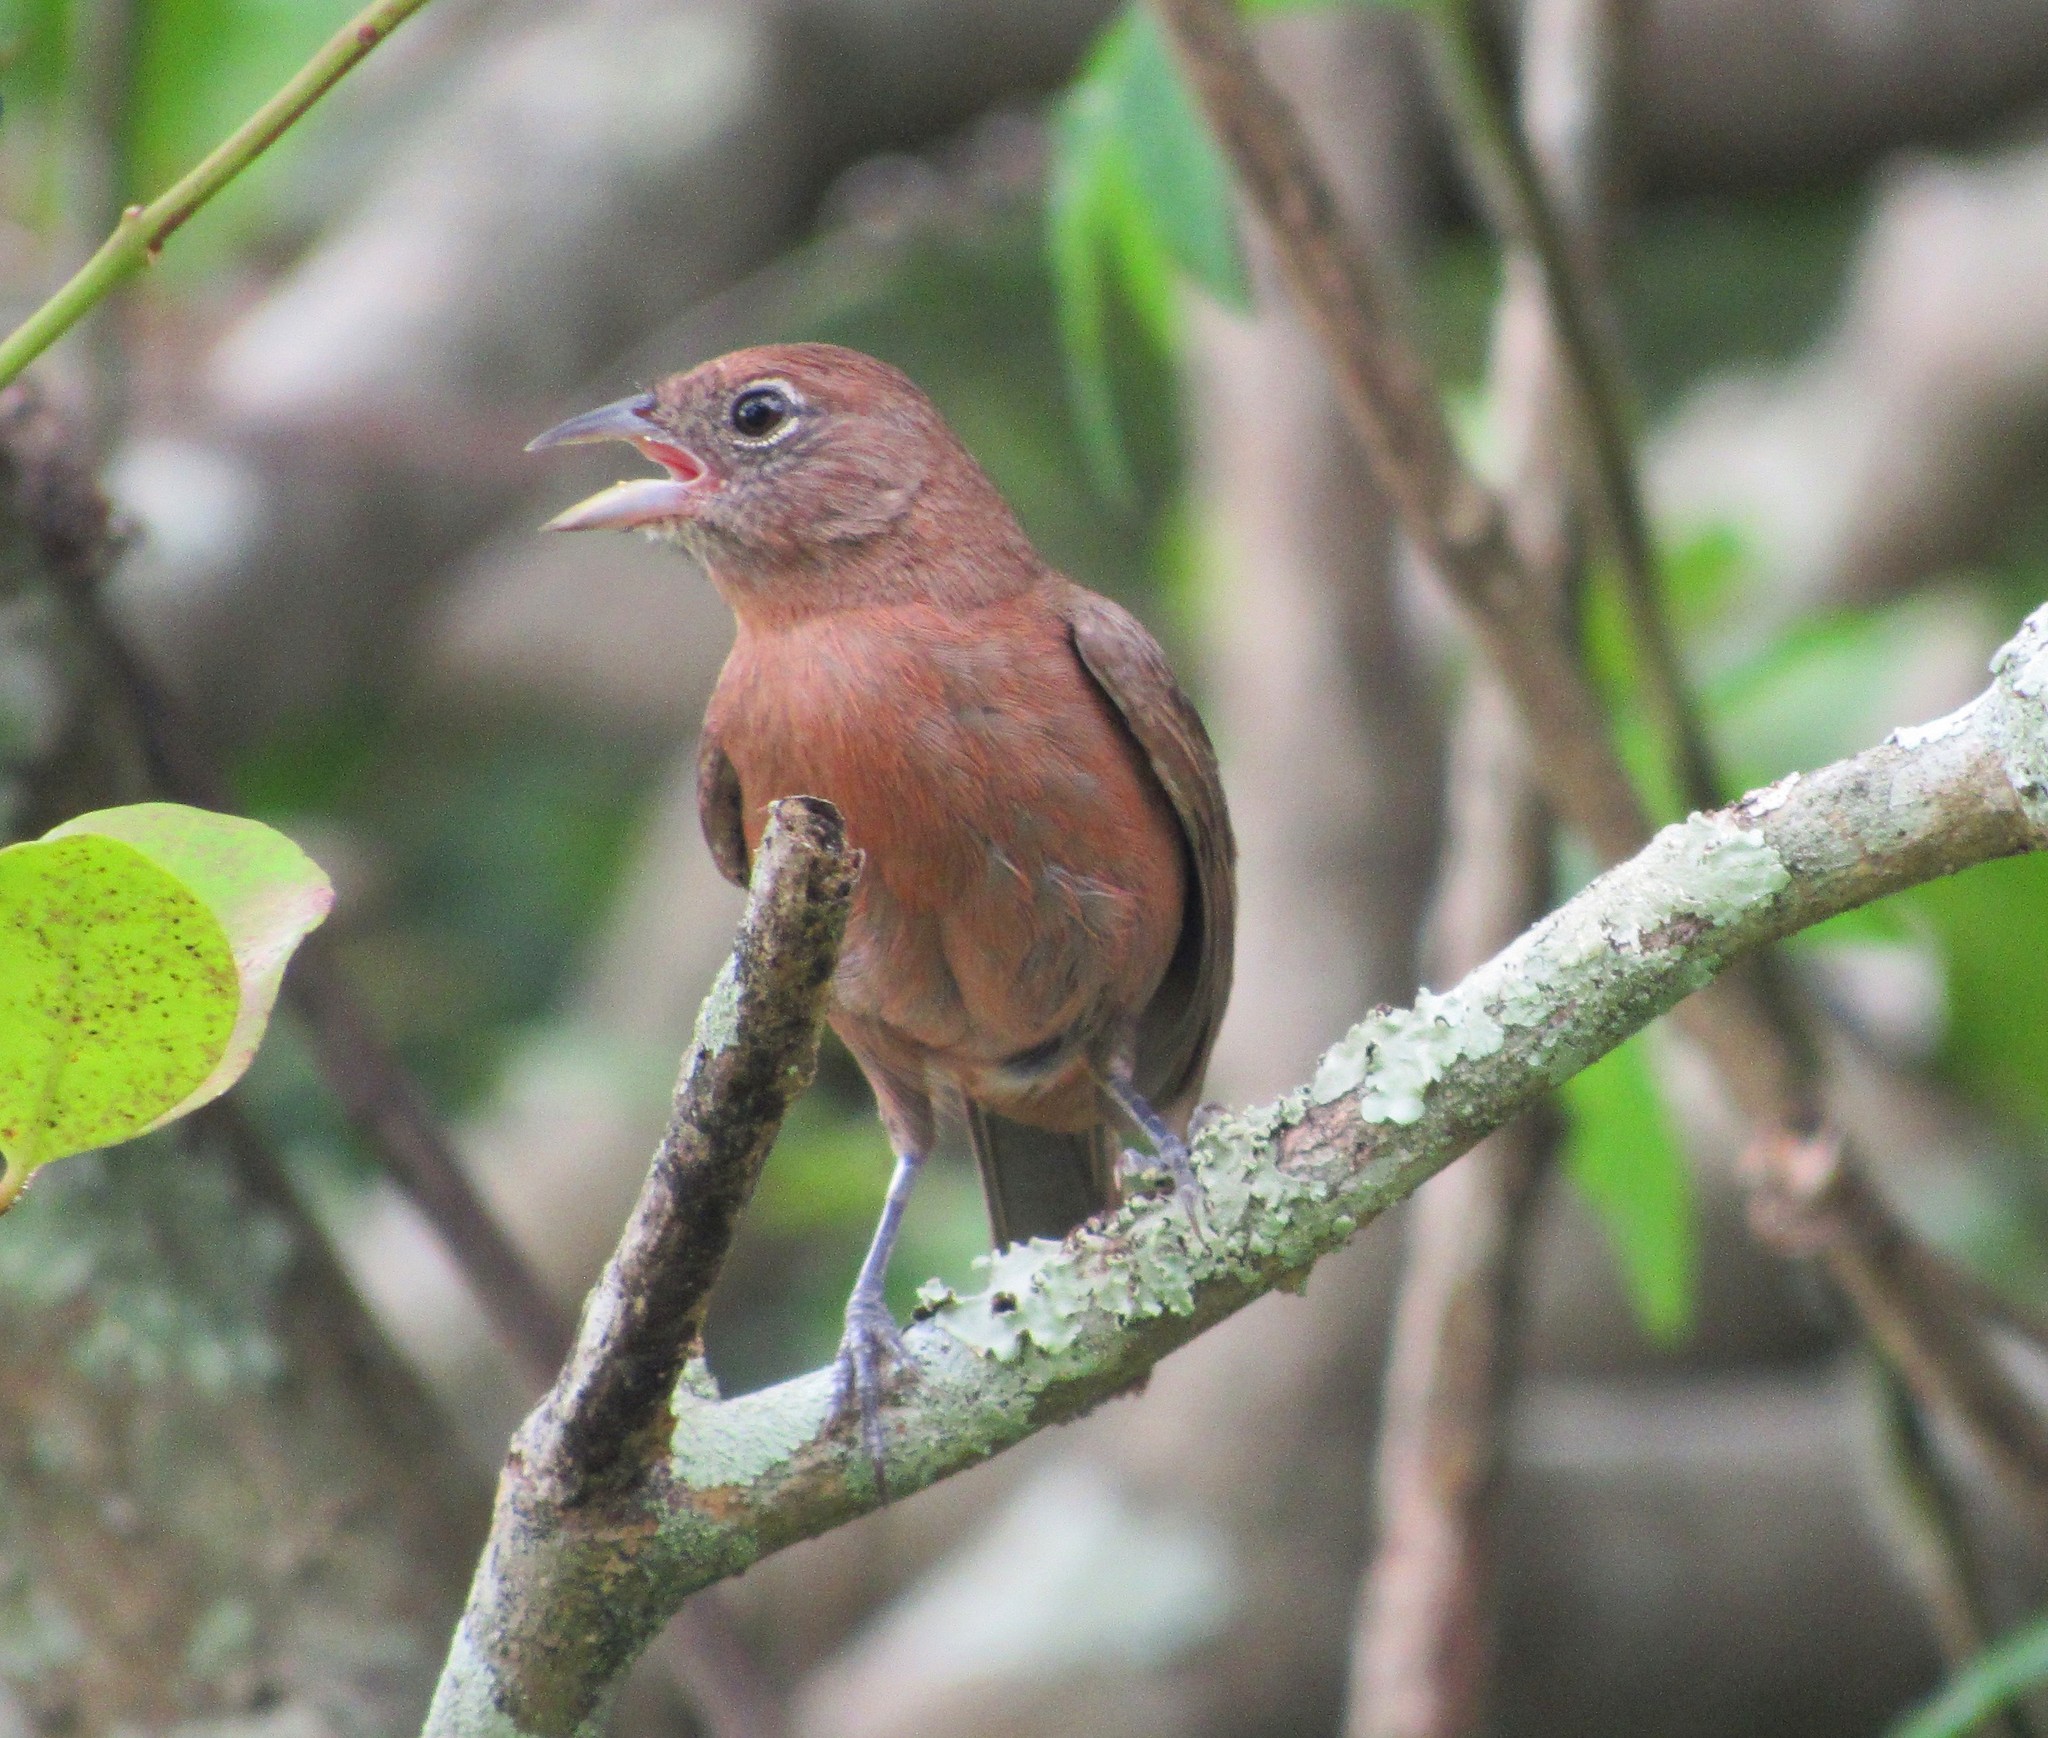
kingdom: Animalia
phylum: Chordata
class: Aves
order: Passeriformes
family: Thraupidae
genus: Coryphospingus
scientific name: Coryphospingus cucullatus
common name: Red pileated finch
